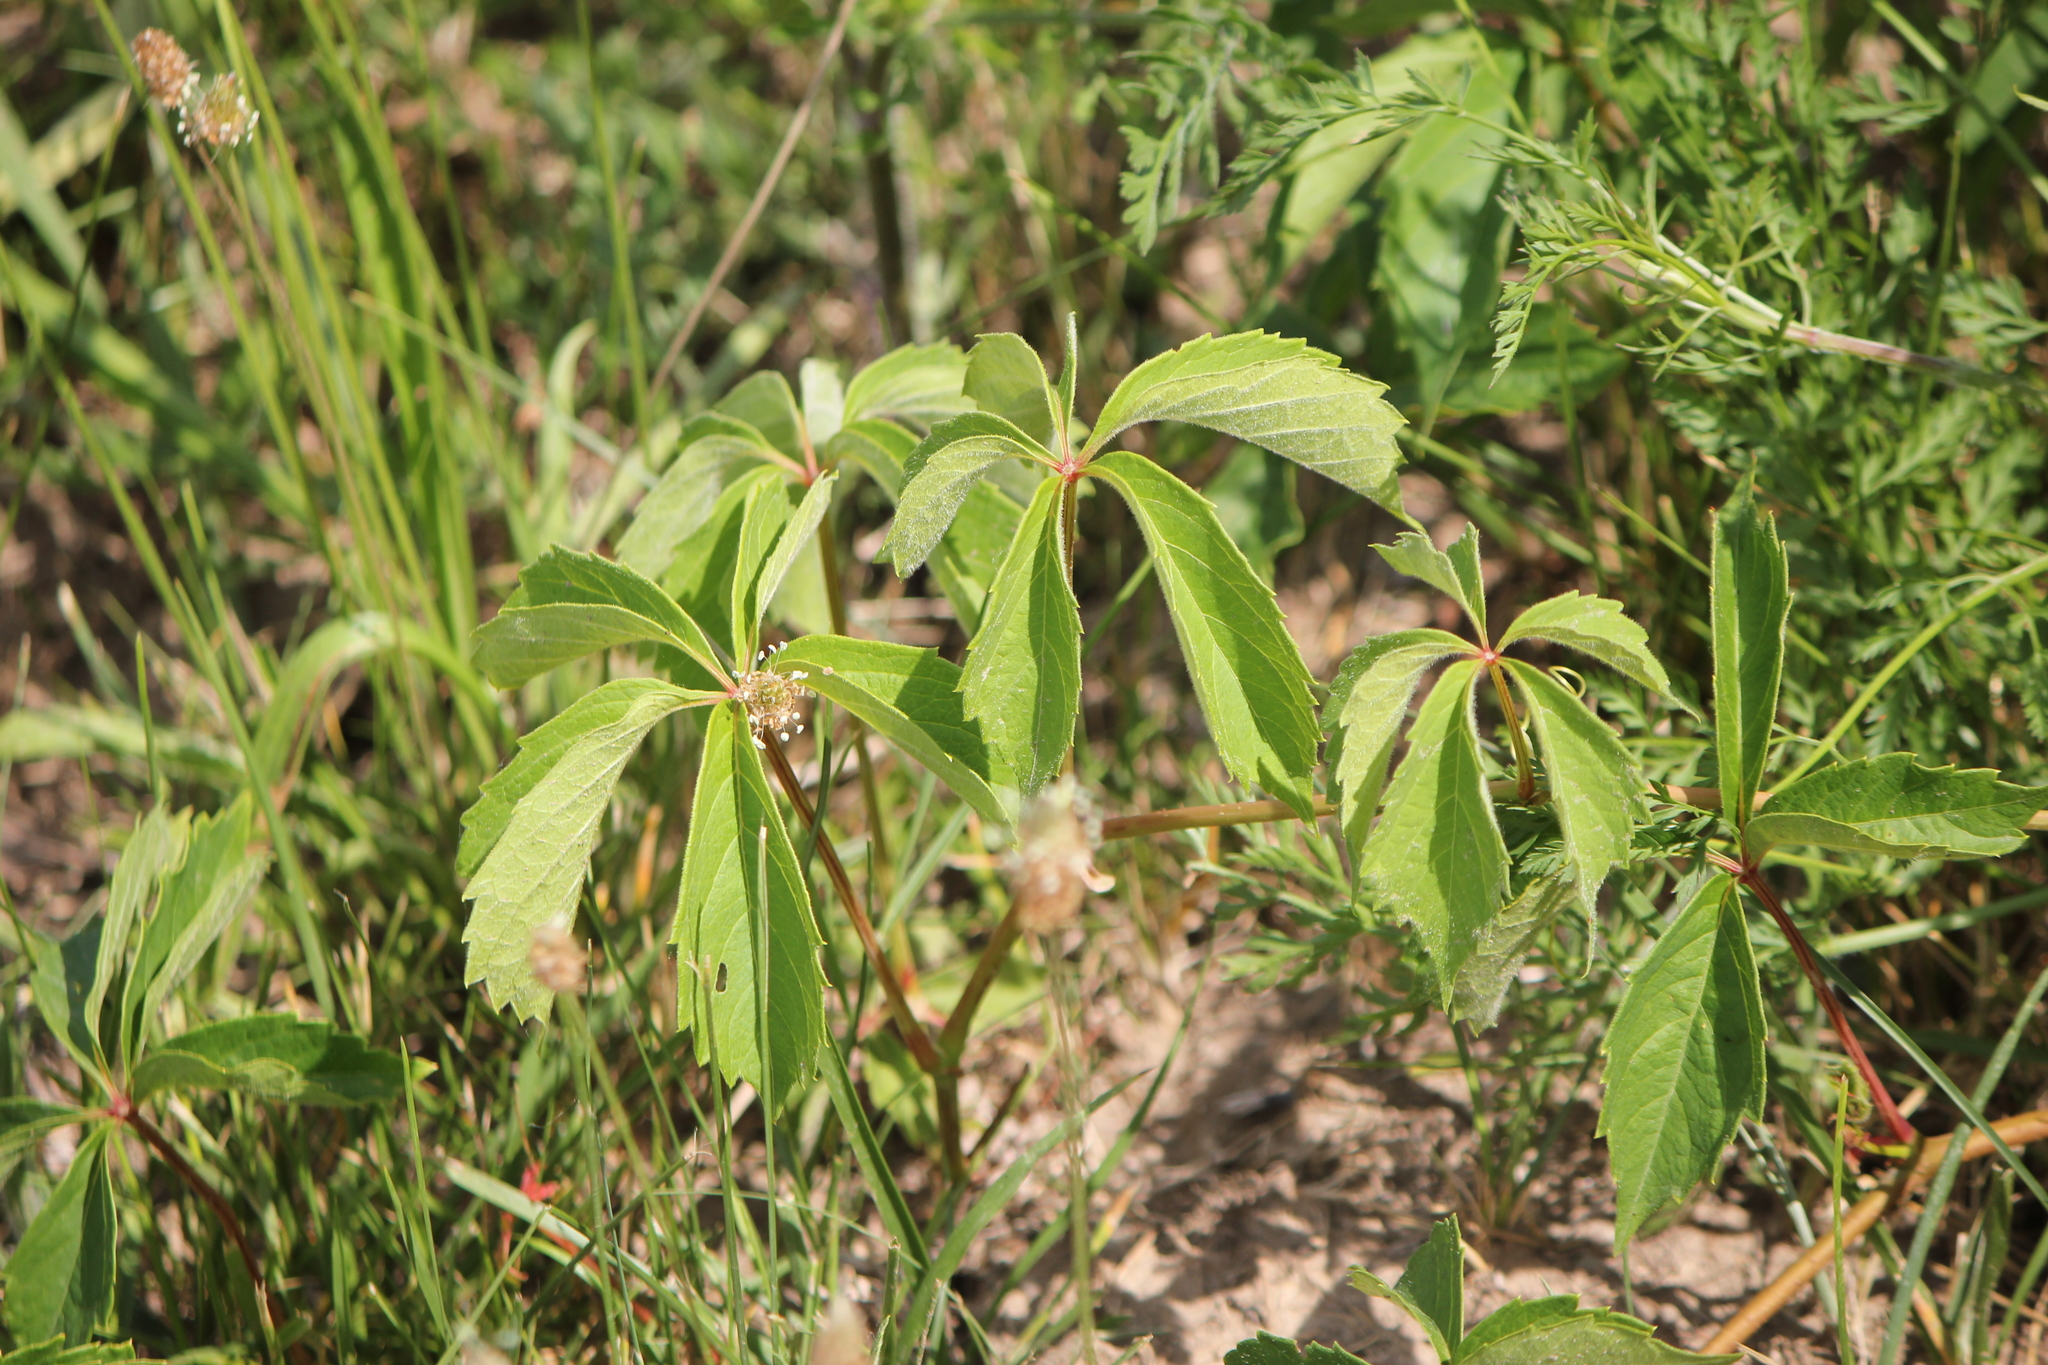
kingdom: Plantae
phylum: Tracheophyta
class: Magnoliopsida
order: Vitales
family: Vitaceae
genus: Parthenocissus
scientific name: Parthenocissus quinquefolia
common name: Virginia-creeper
